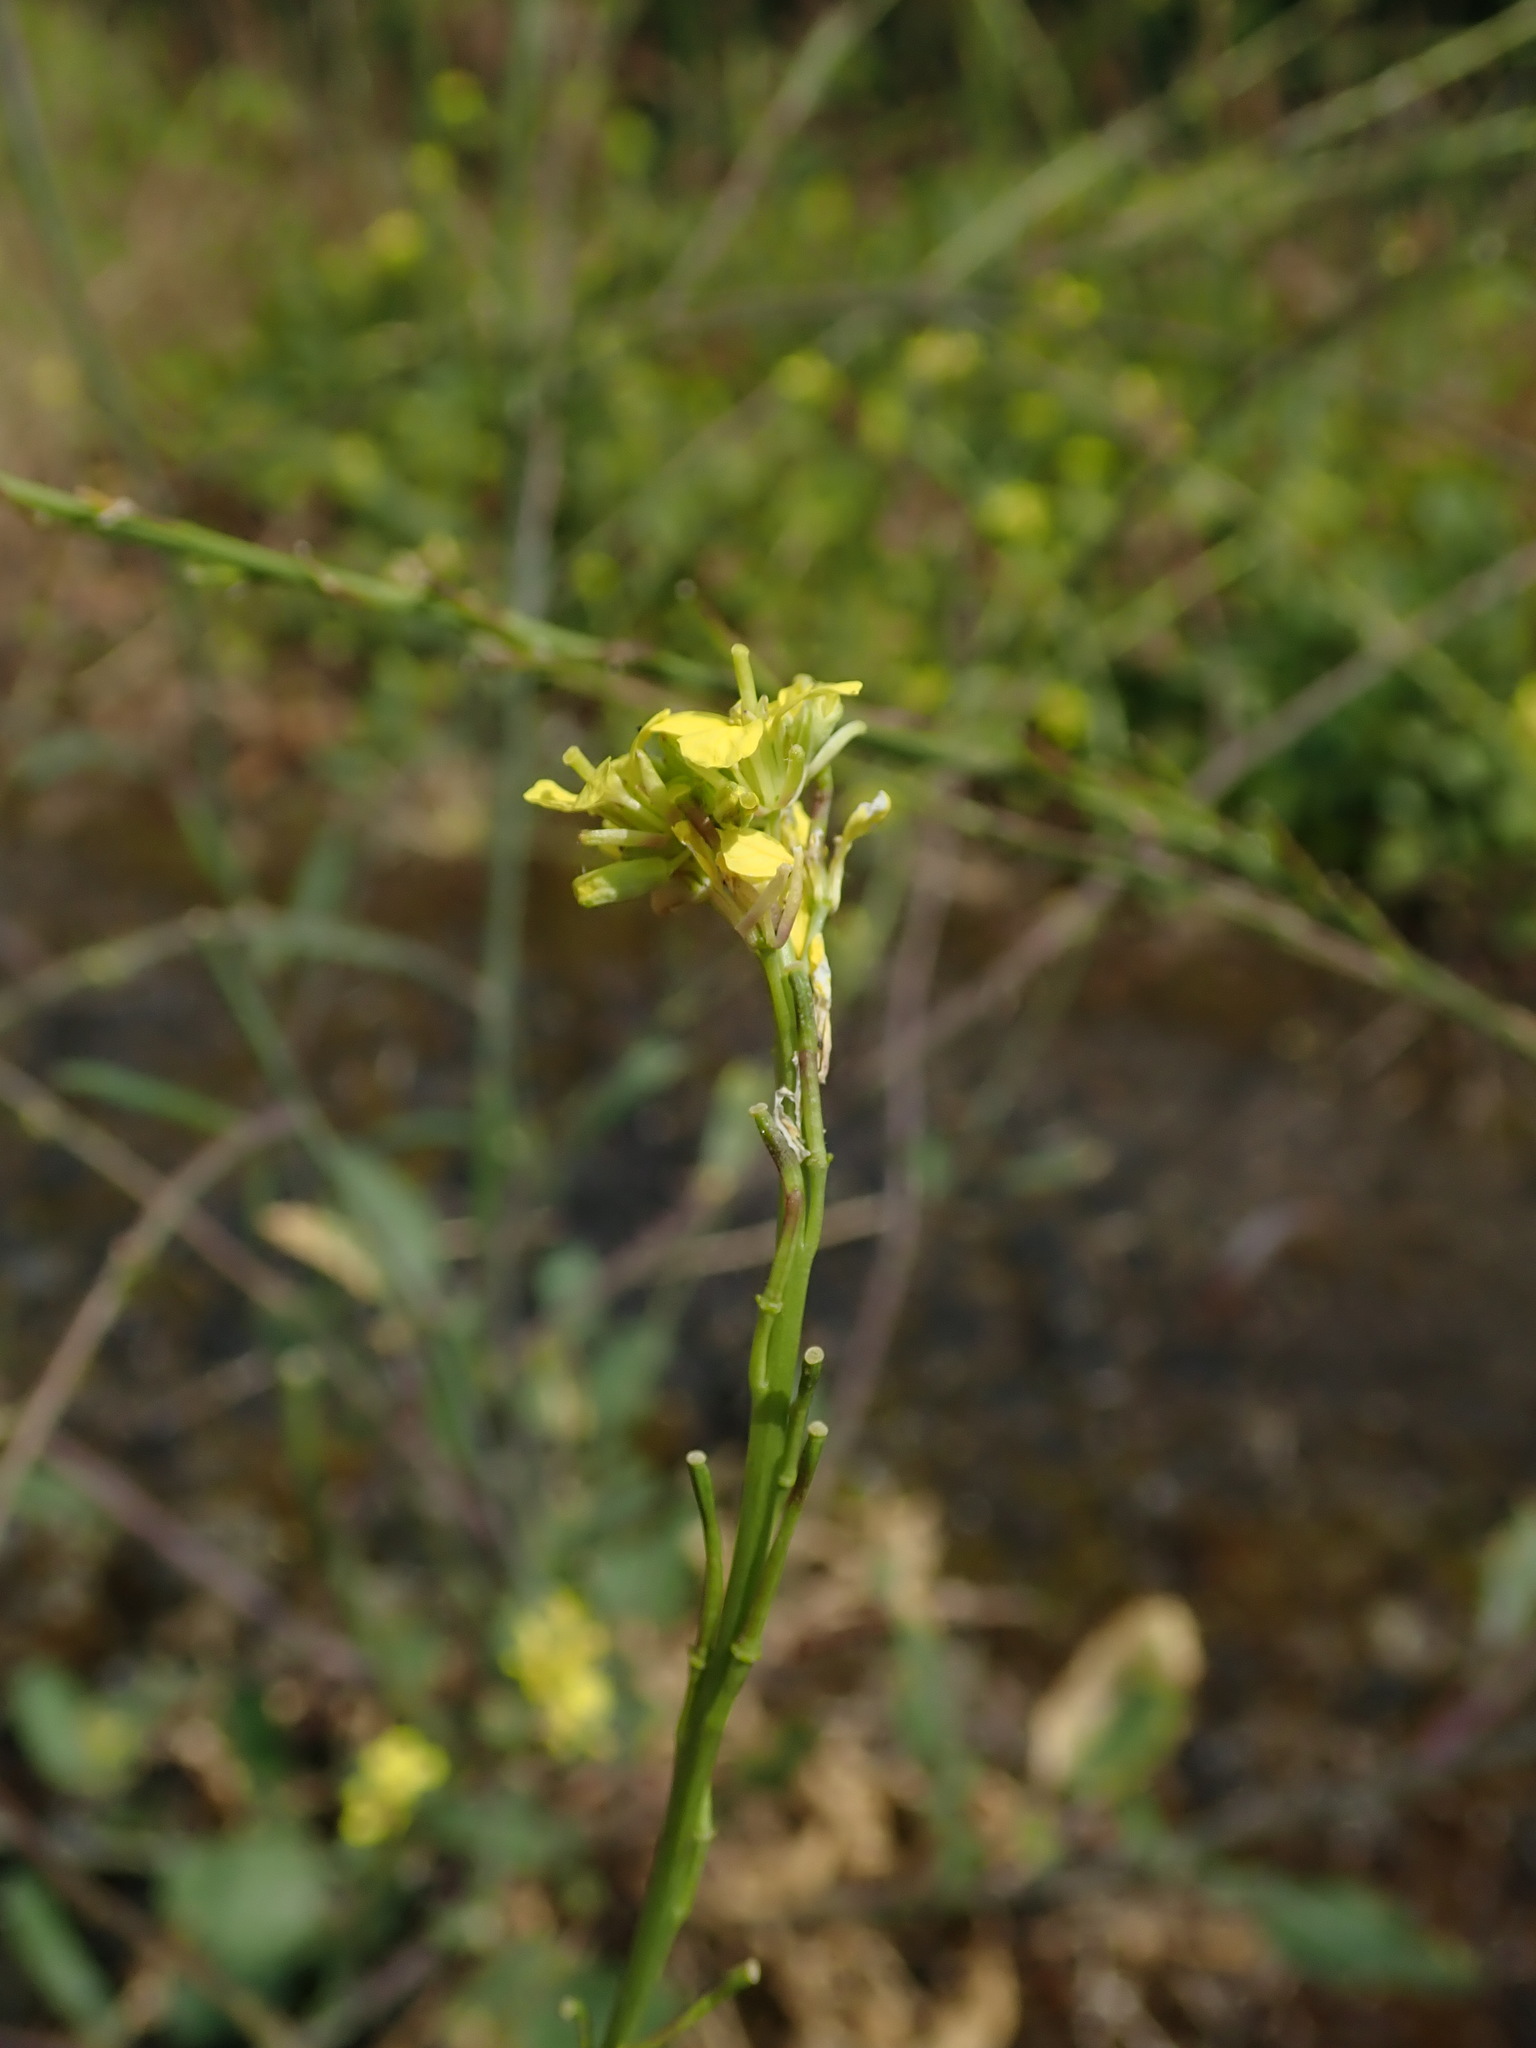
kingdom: Plantae
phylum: Tracheophyta
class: Magnoliopsida
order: Brassicales
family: Brassicaceae
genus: Hirschfeldia
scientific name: Hirschfeldia incana
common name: Hoary mustard
